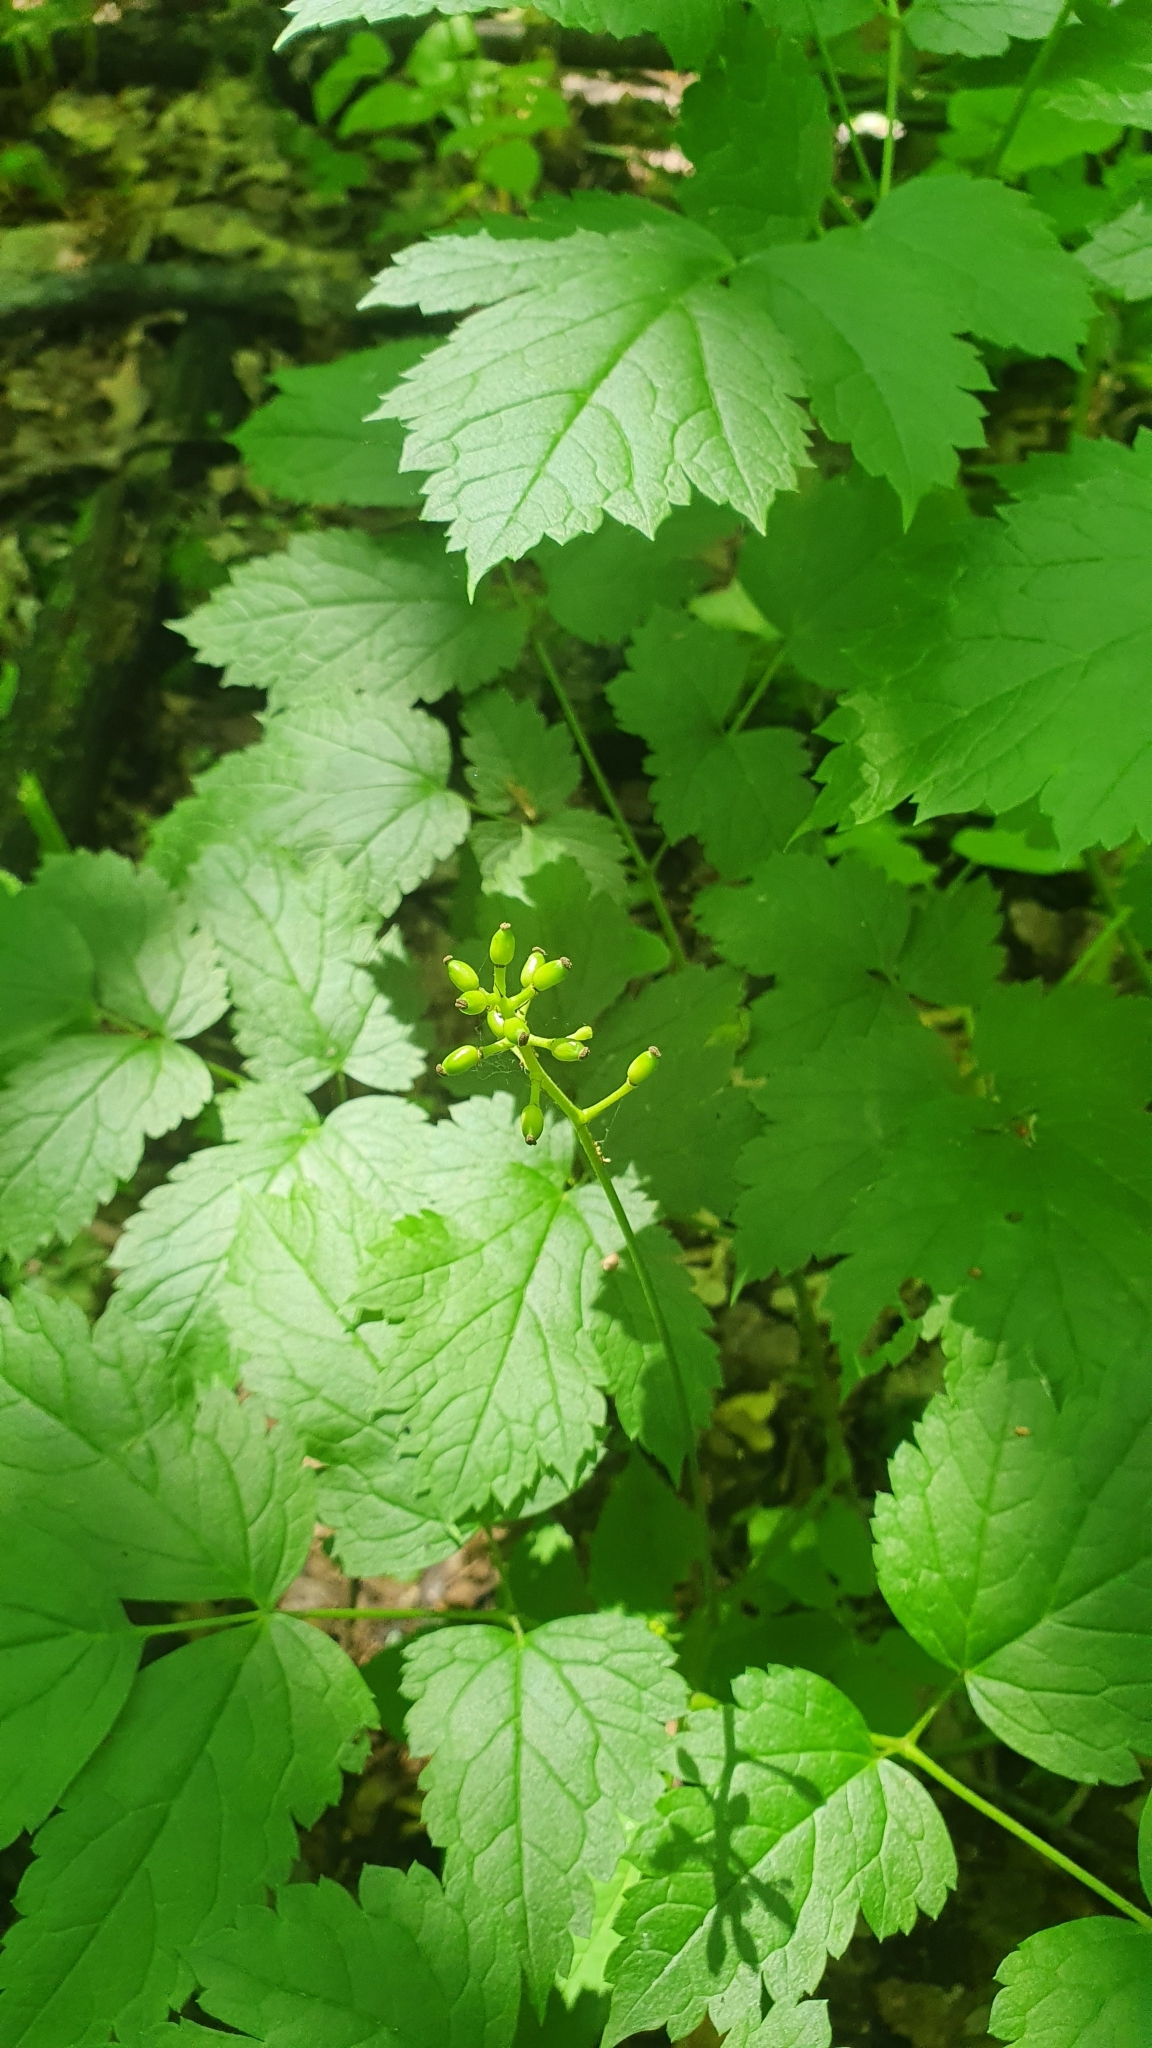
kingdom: Plantae
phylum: Tracheophyta
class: Magnoliopsida
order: Ranunculales
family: Ranunculaceae
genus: Actaea
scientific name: Actaea spicata
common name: Baneberry
